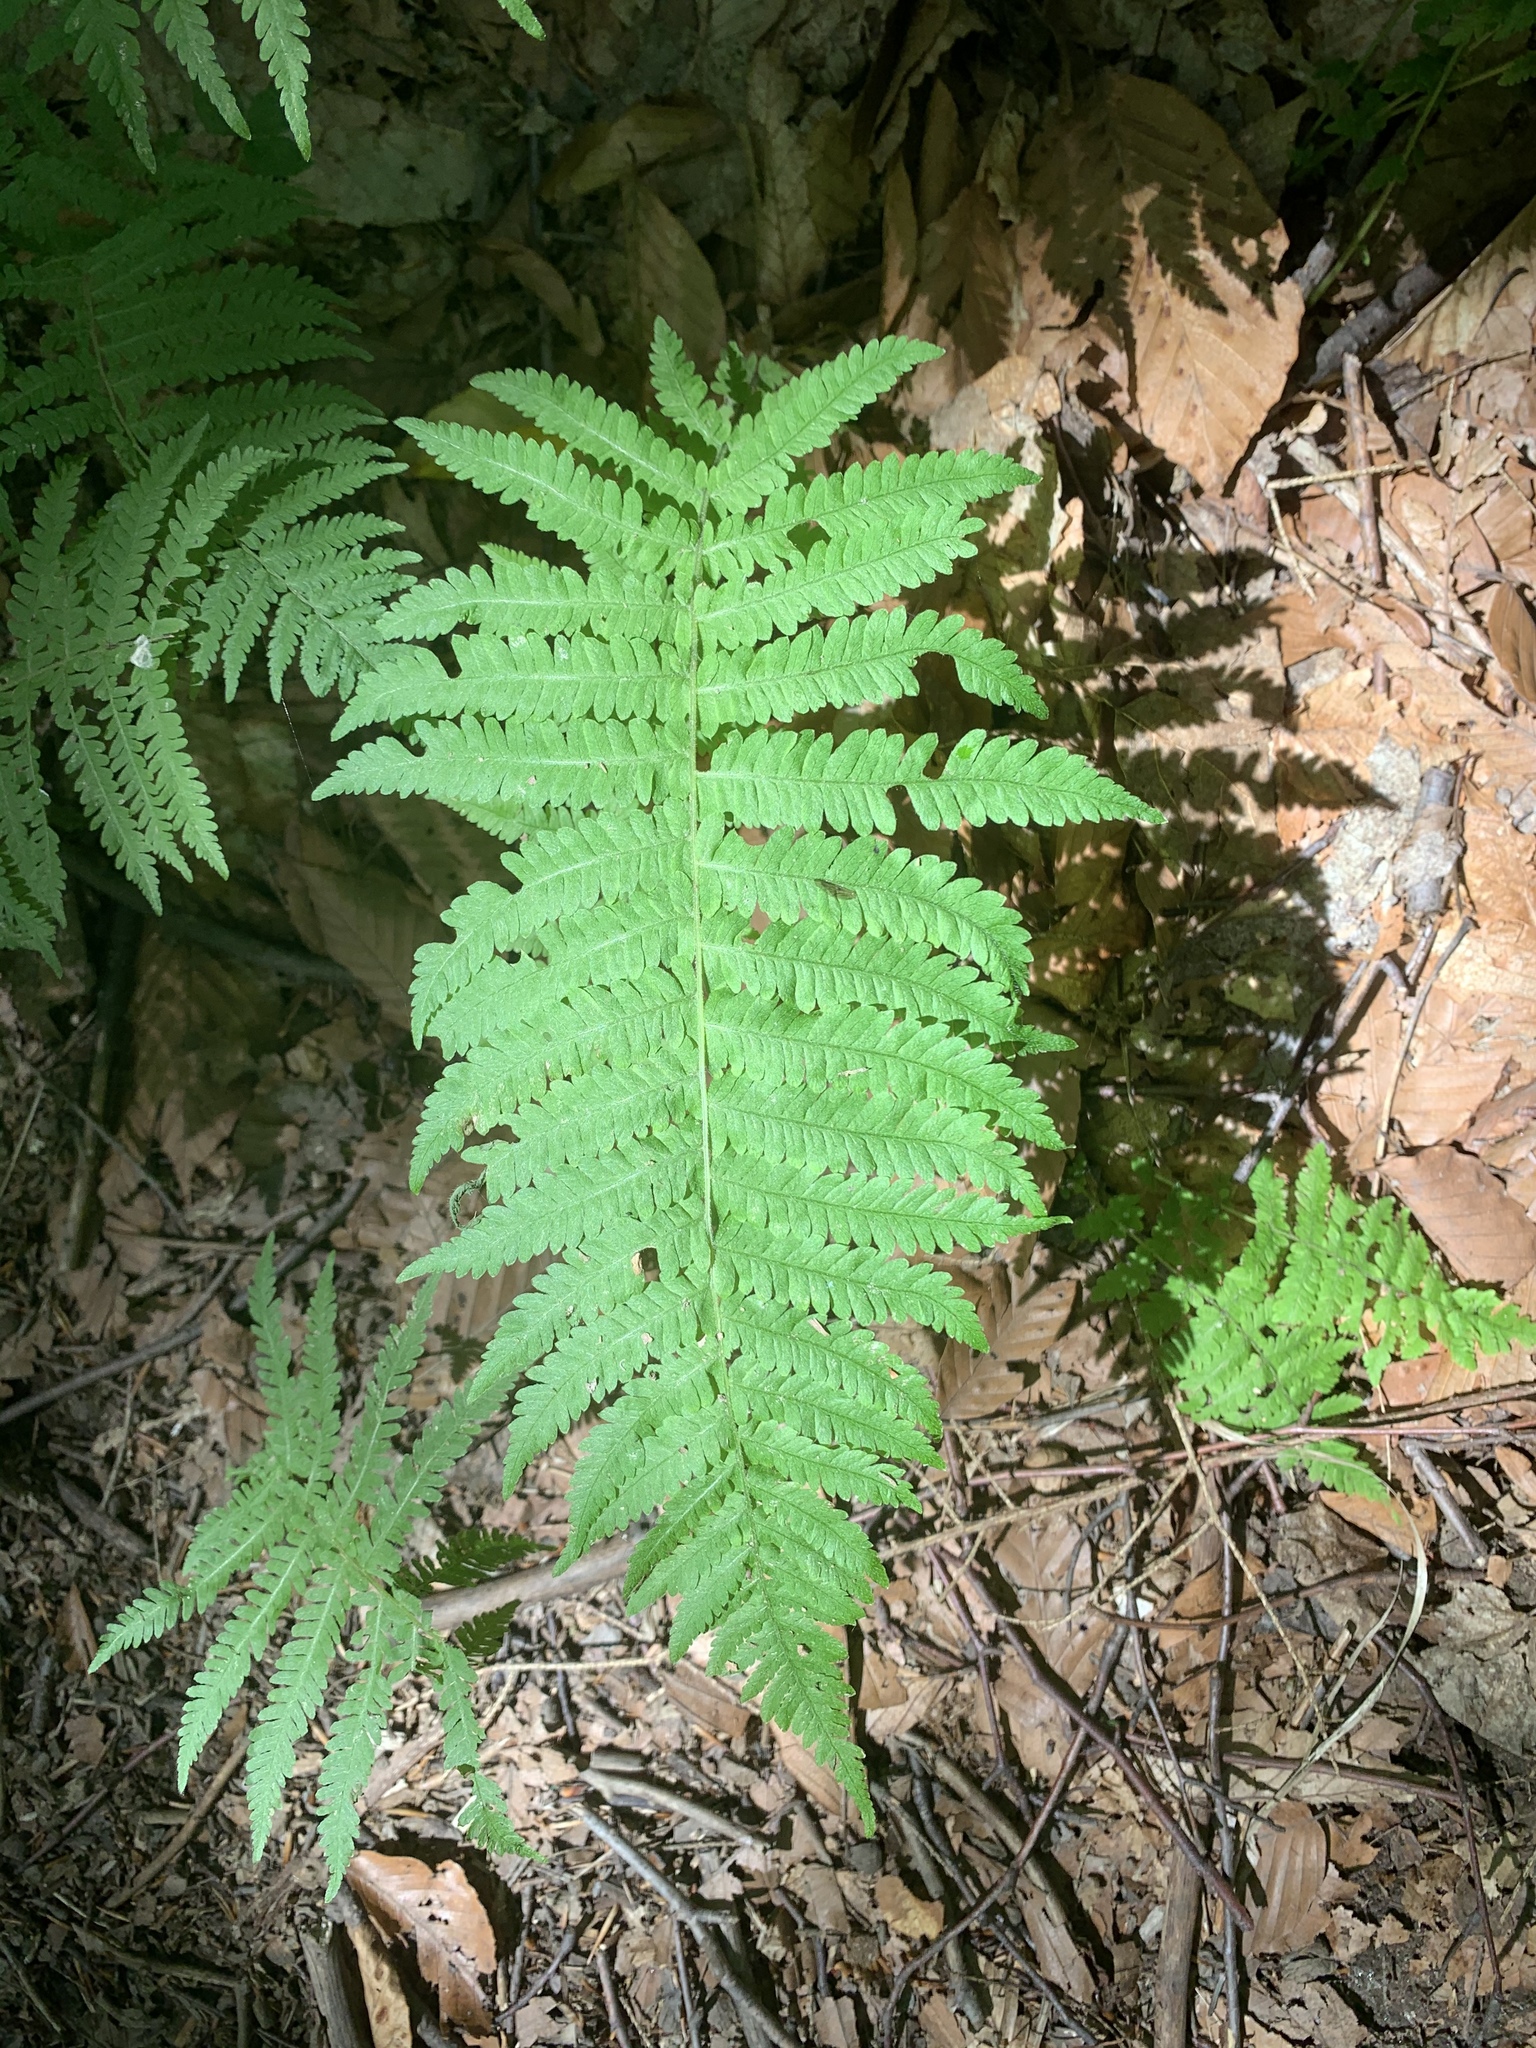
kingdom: Plantae
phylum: Tracheophyta
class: Polypodiopsida
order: Polypodiales
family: Thelypteridaceae
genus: Amauropelta
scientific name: Amauropelta noveboracensis
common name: New york fern
